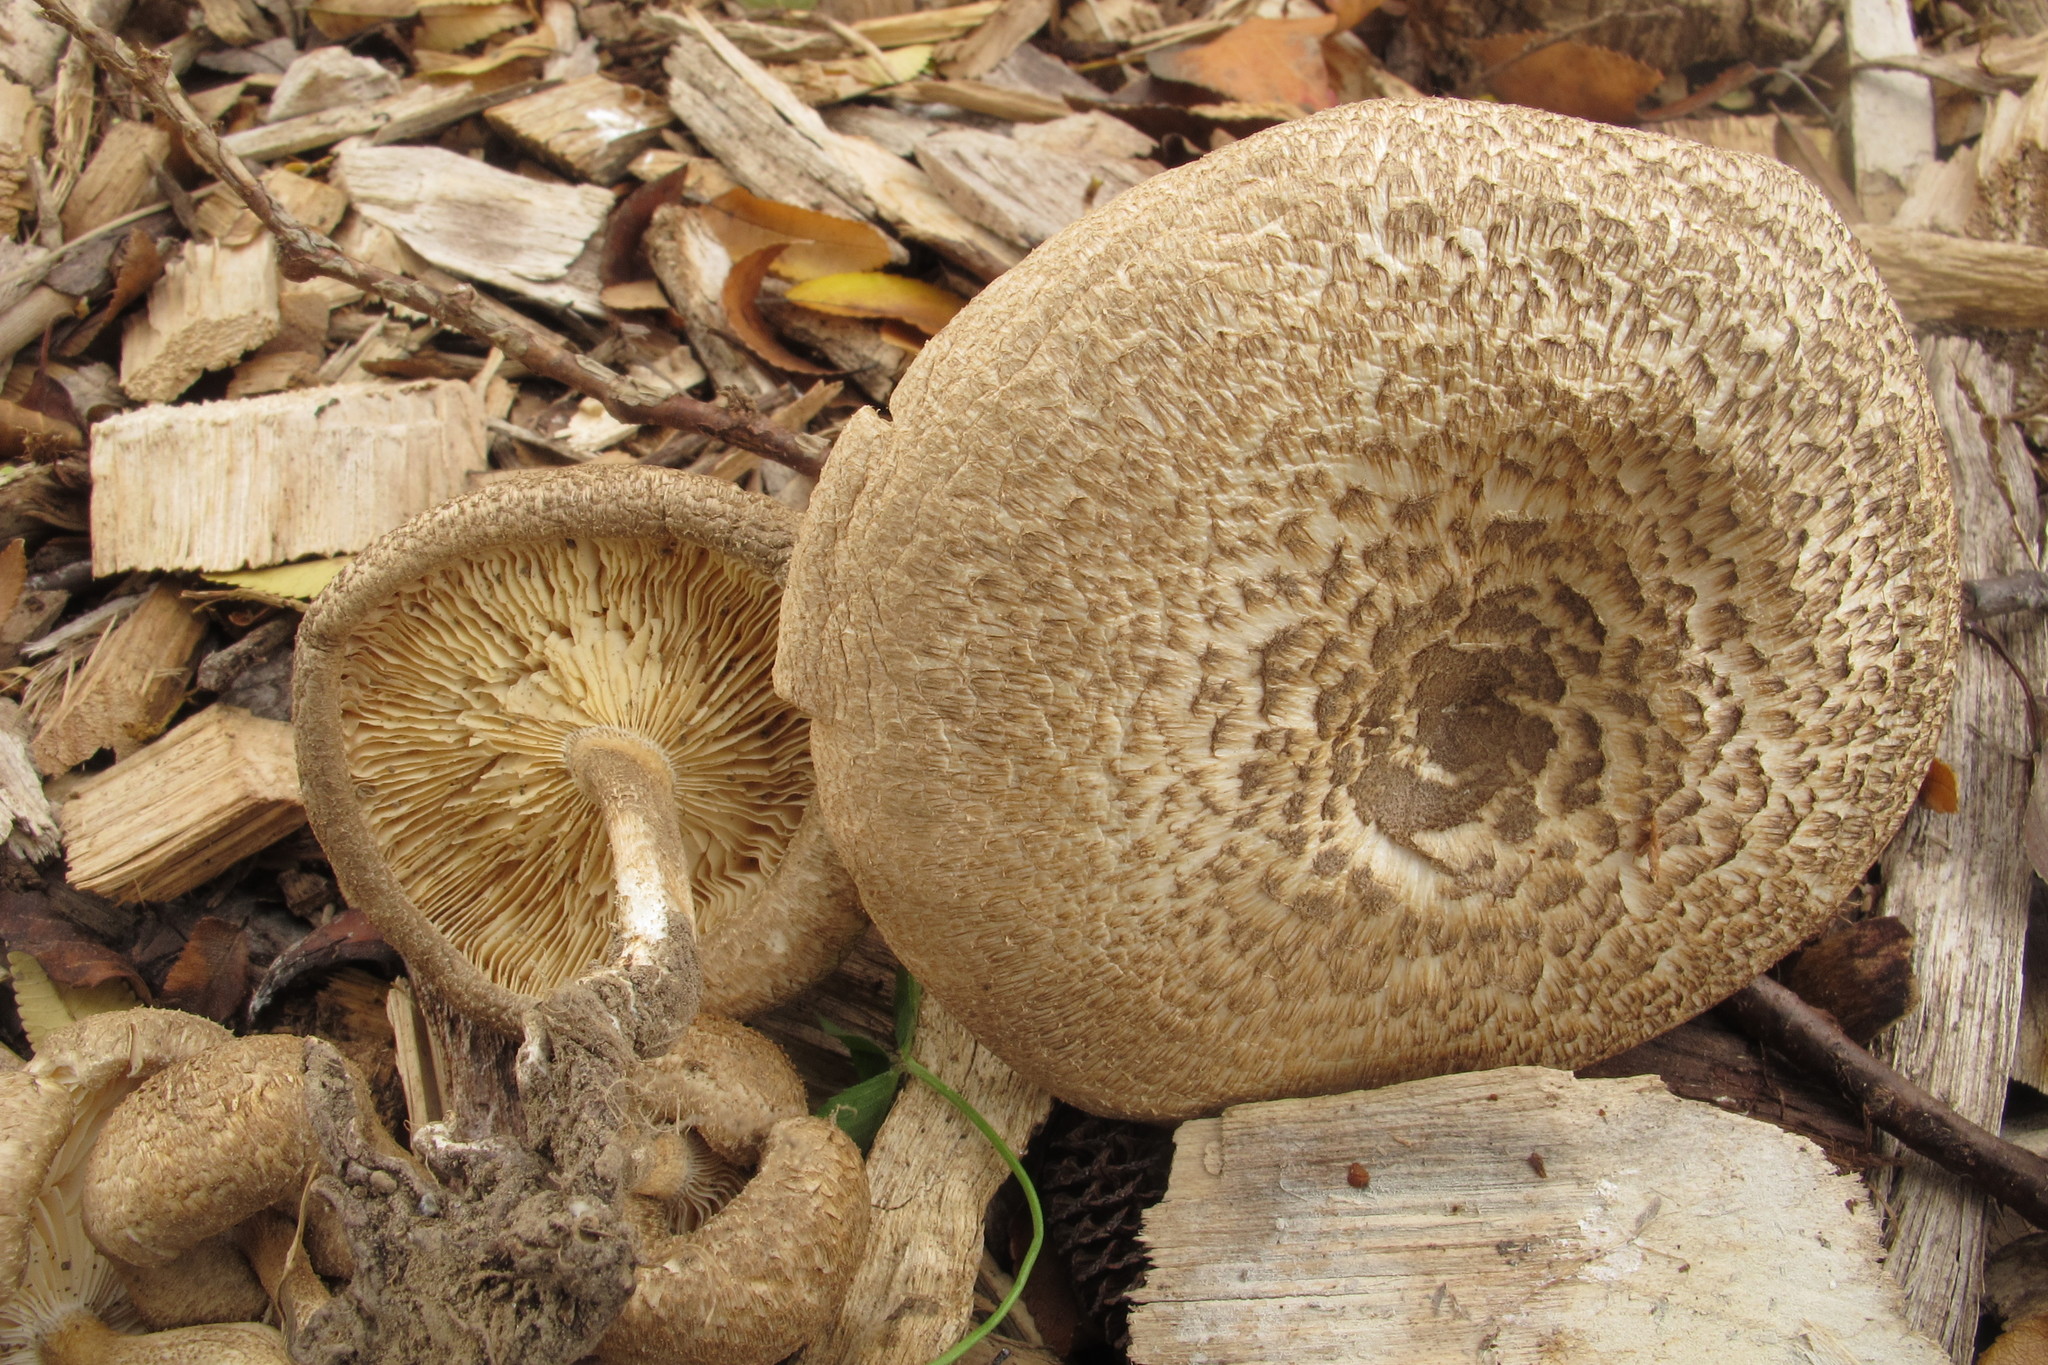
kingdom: Fungi
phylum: Basidiomycota
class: Agaricomycetes
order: Polyporales
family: Polyporaceae
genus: Lentinus
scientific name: Lentinus tigrinus
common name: Tiger sawgill
